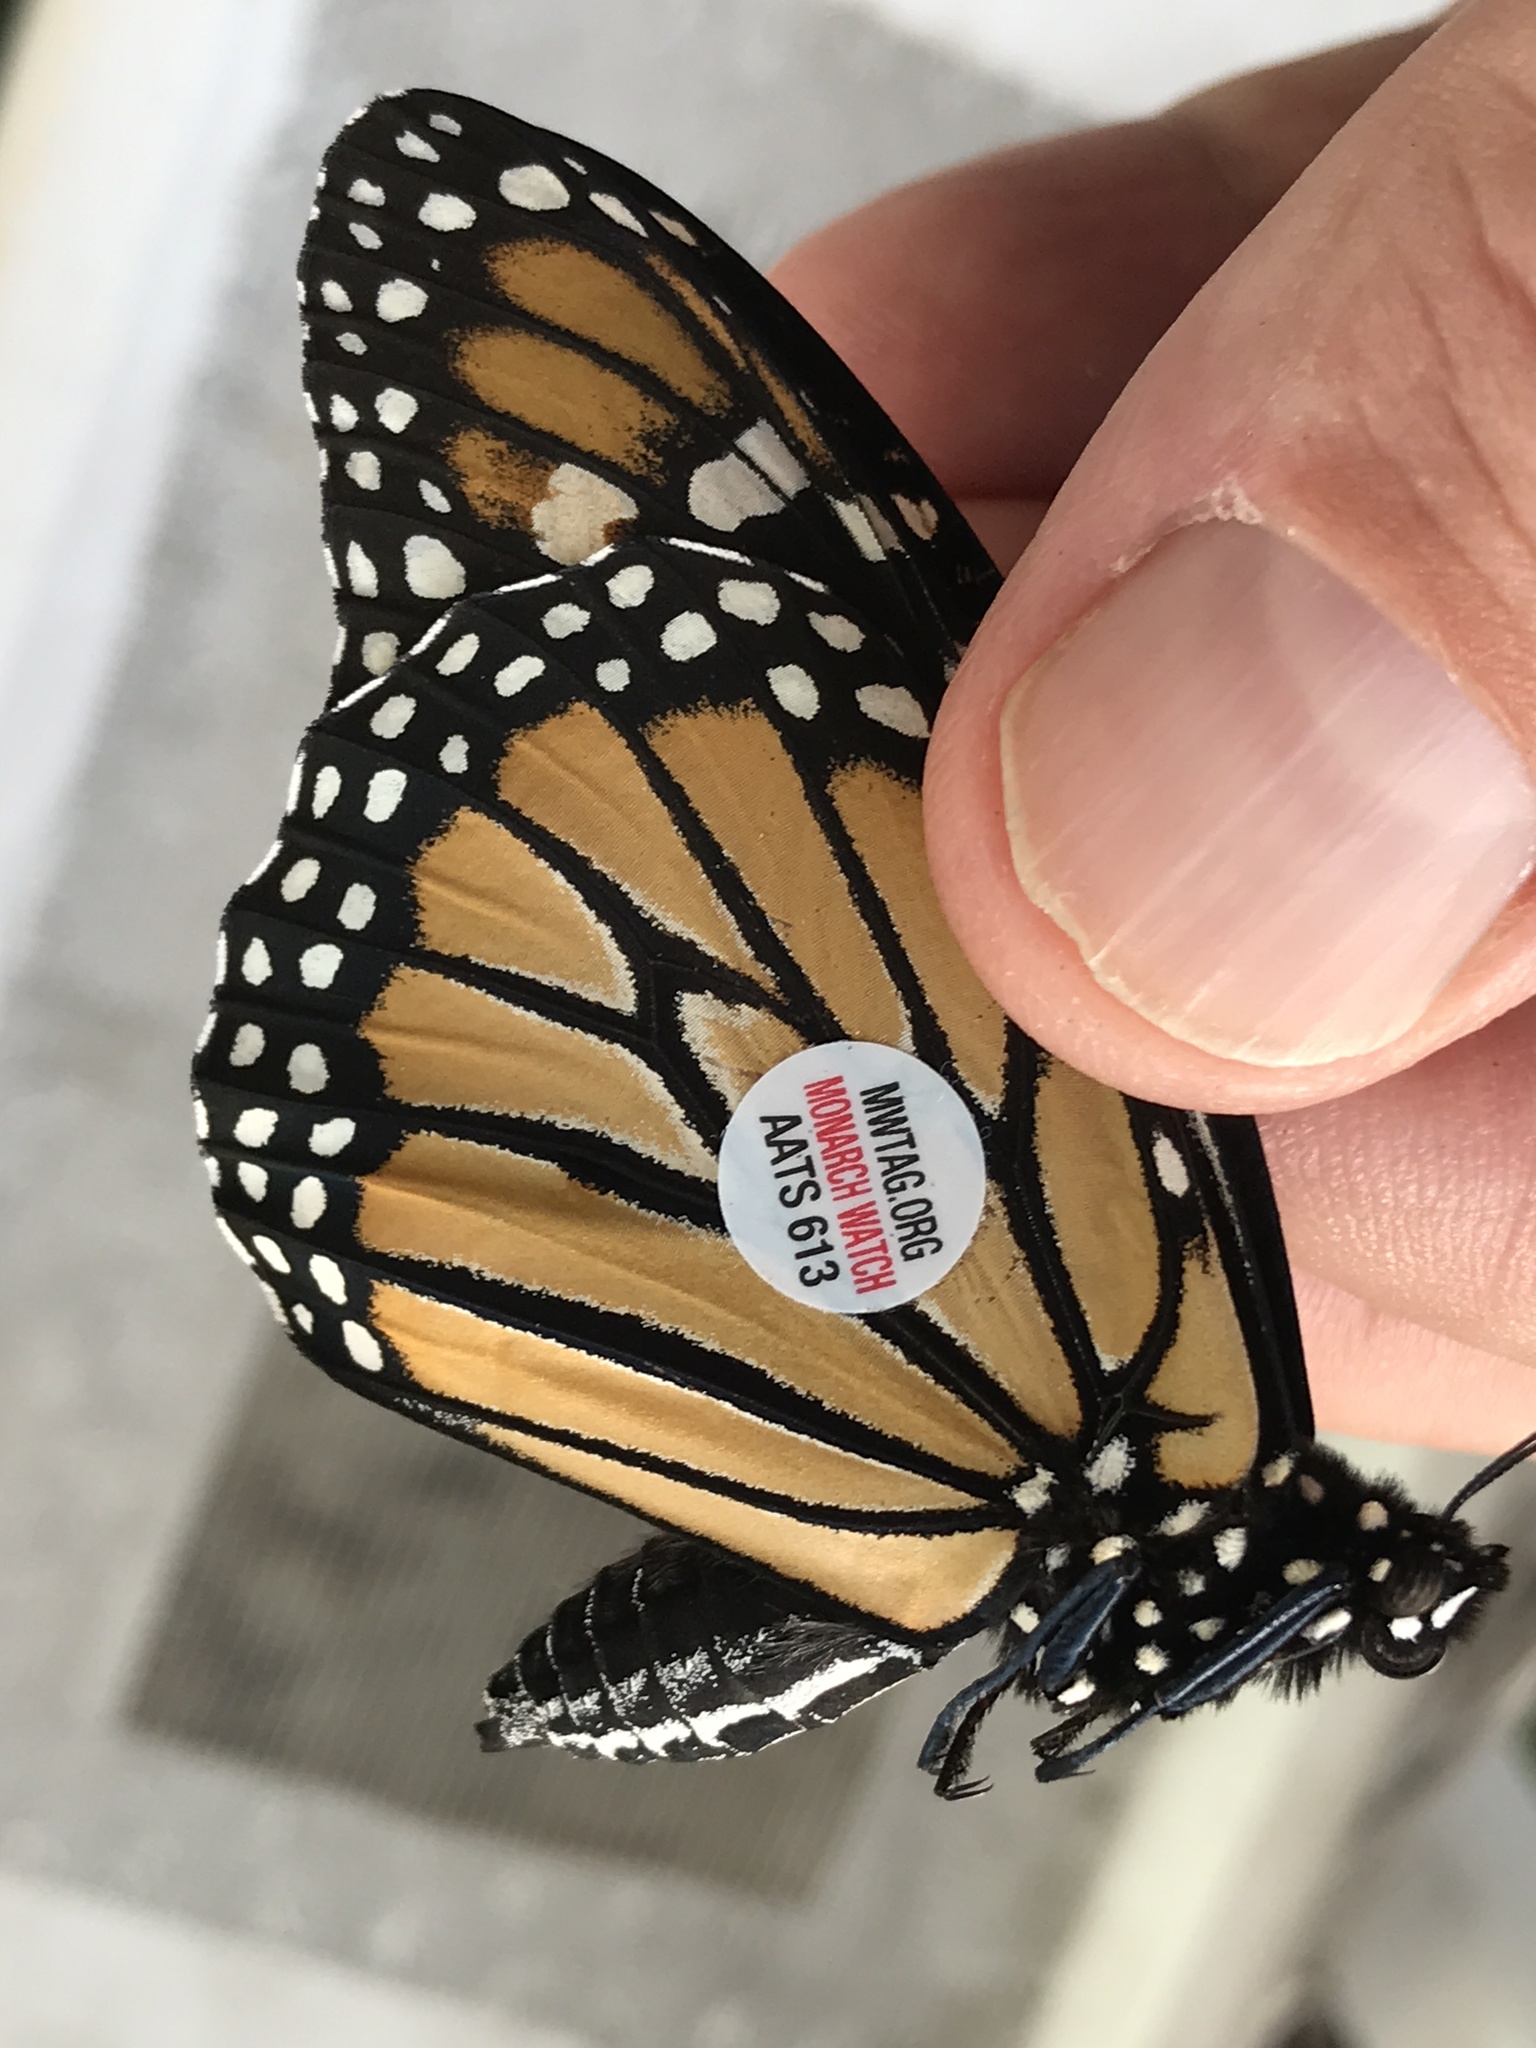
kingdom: Animalia
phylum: Arthropoda
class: Insecta
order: Lepidoptera
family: Nymphalidae
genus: Danaus
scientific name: Danaus plexippus
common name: Monarch
